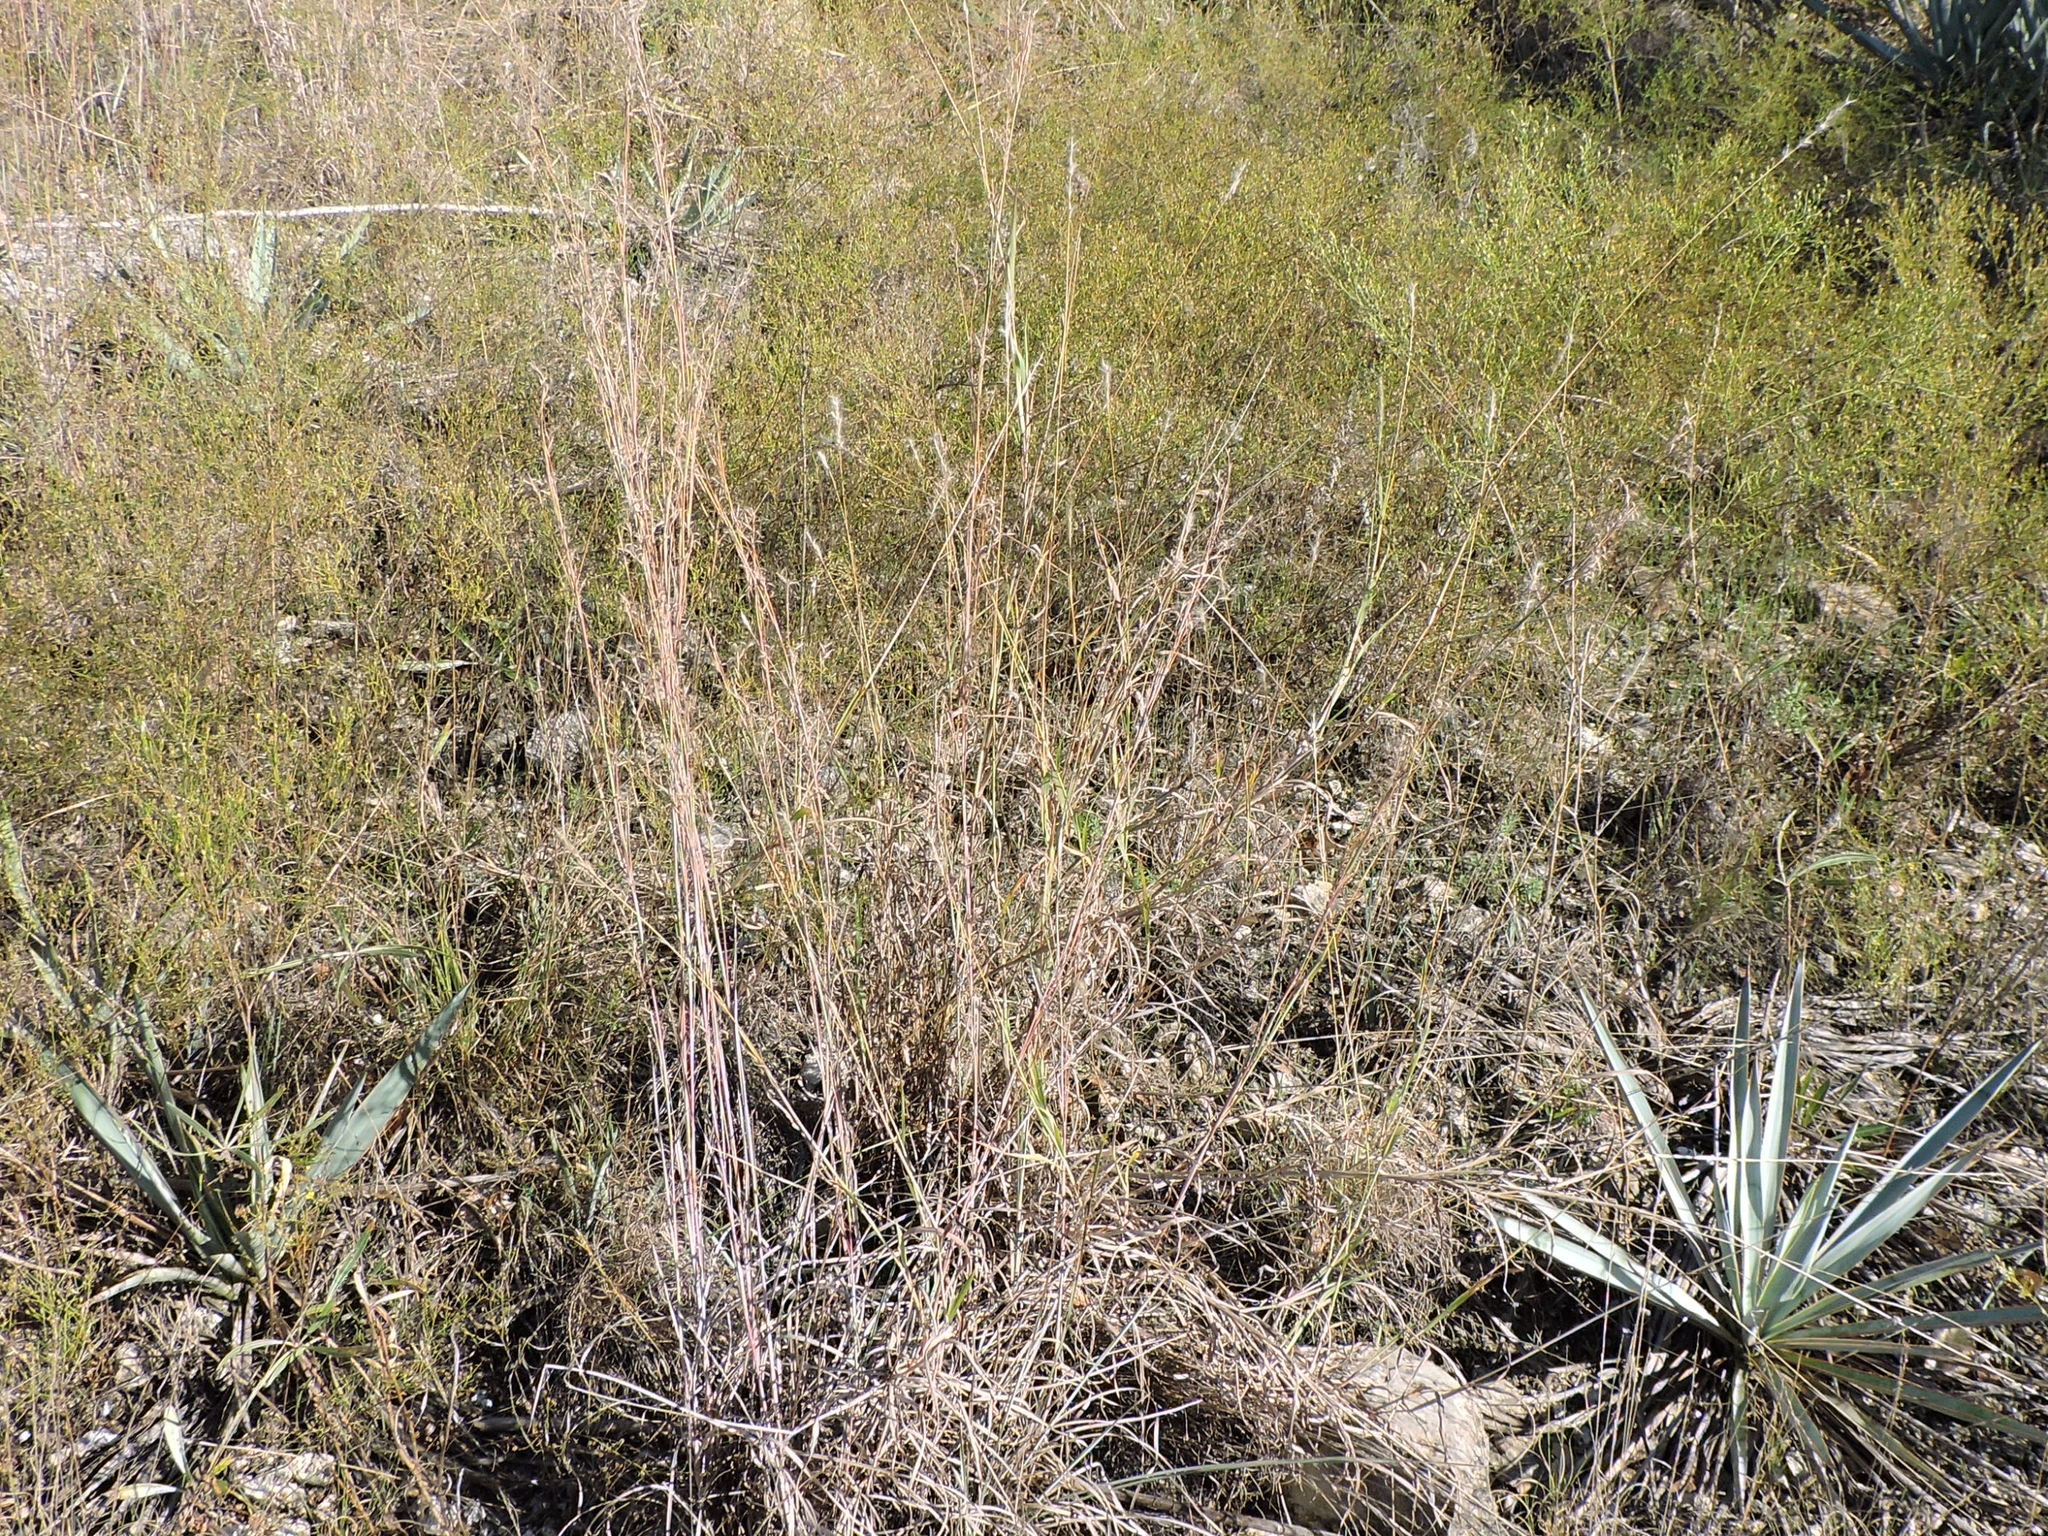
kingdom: Plantae
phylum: Tracheophyta
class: Liliopsida
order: Poales
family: Poaceae
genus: Schizachyrium
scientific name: Schizachyrium scoparium
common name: Little bluestem
